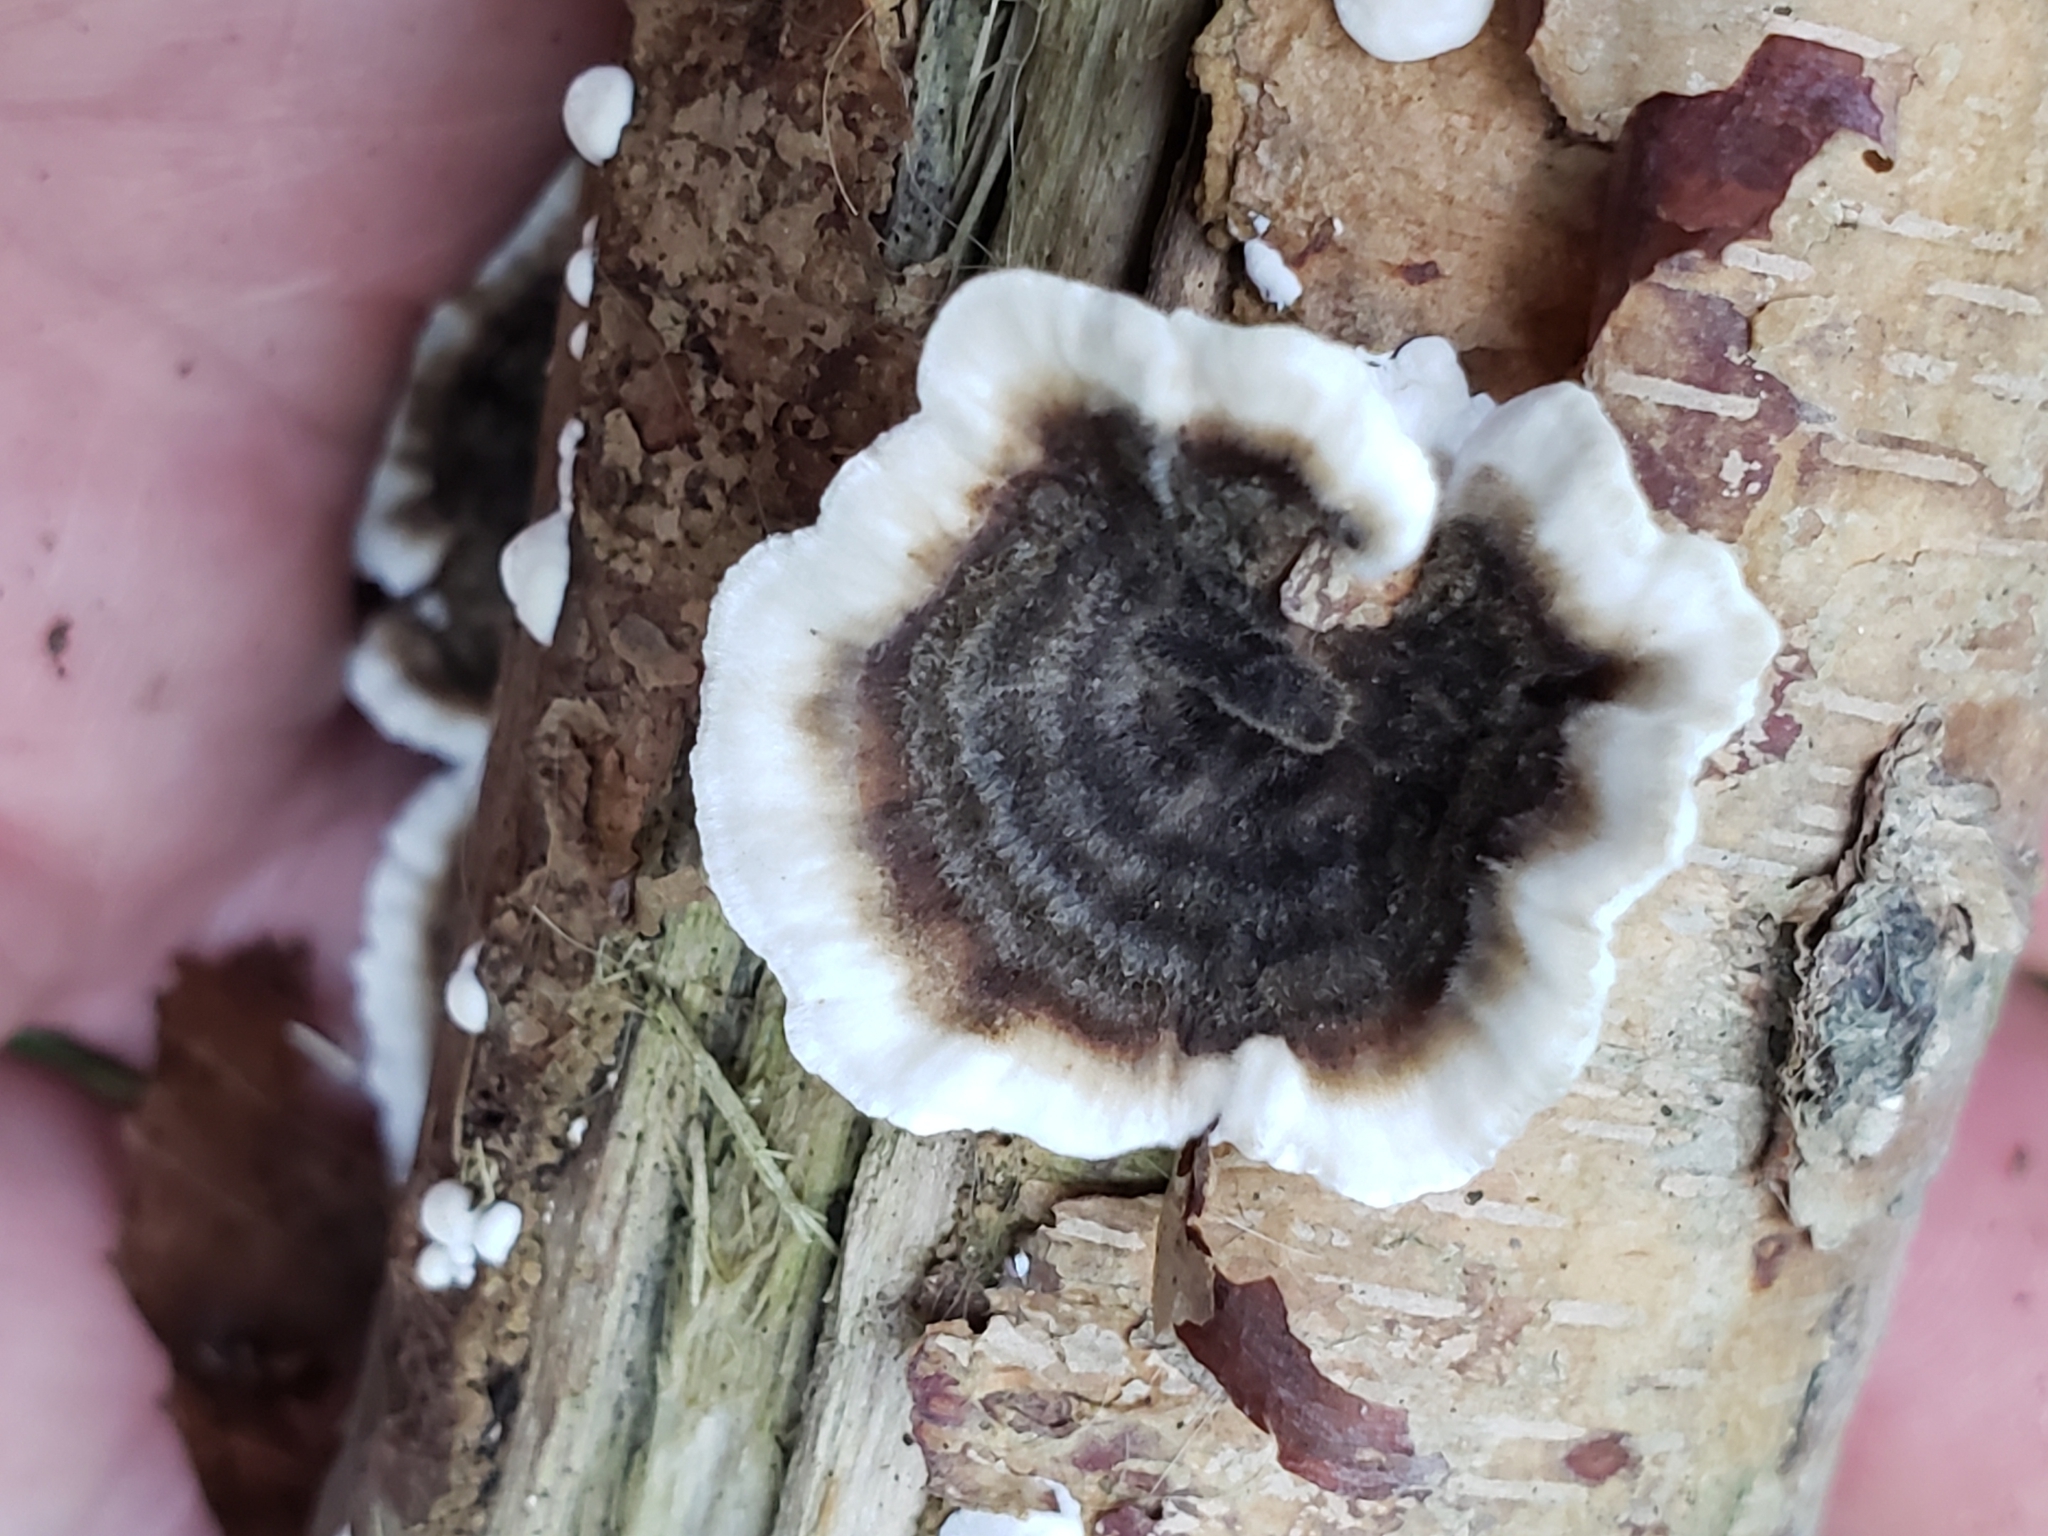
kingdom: Fungi
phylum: Basidiomycota
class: Agaricomycetes
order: Polyporales
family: Polyporaceae
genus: Trametes
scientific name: Trametes versicolor
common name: Turkeytail
